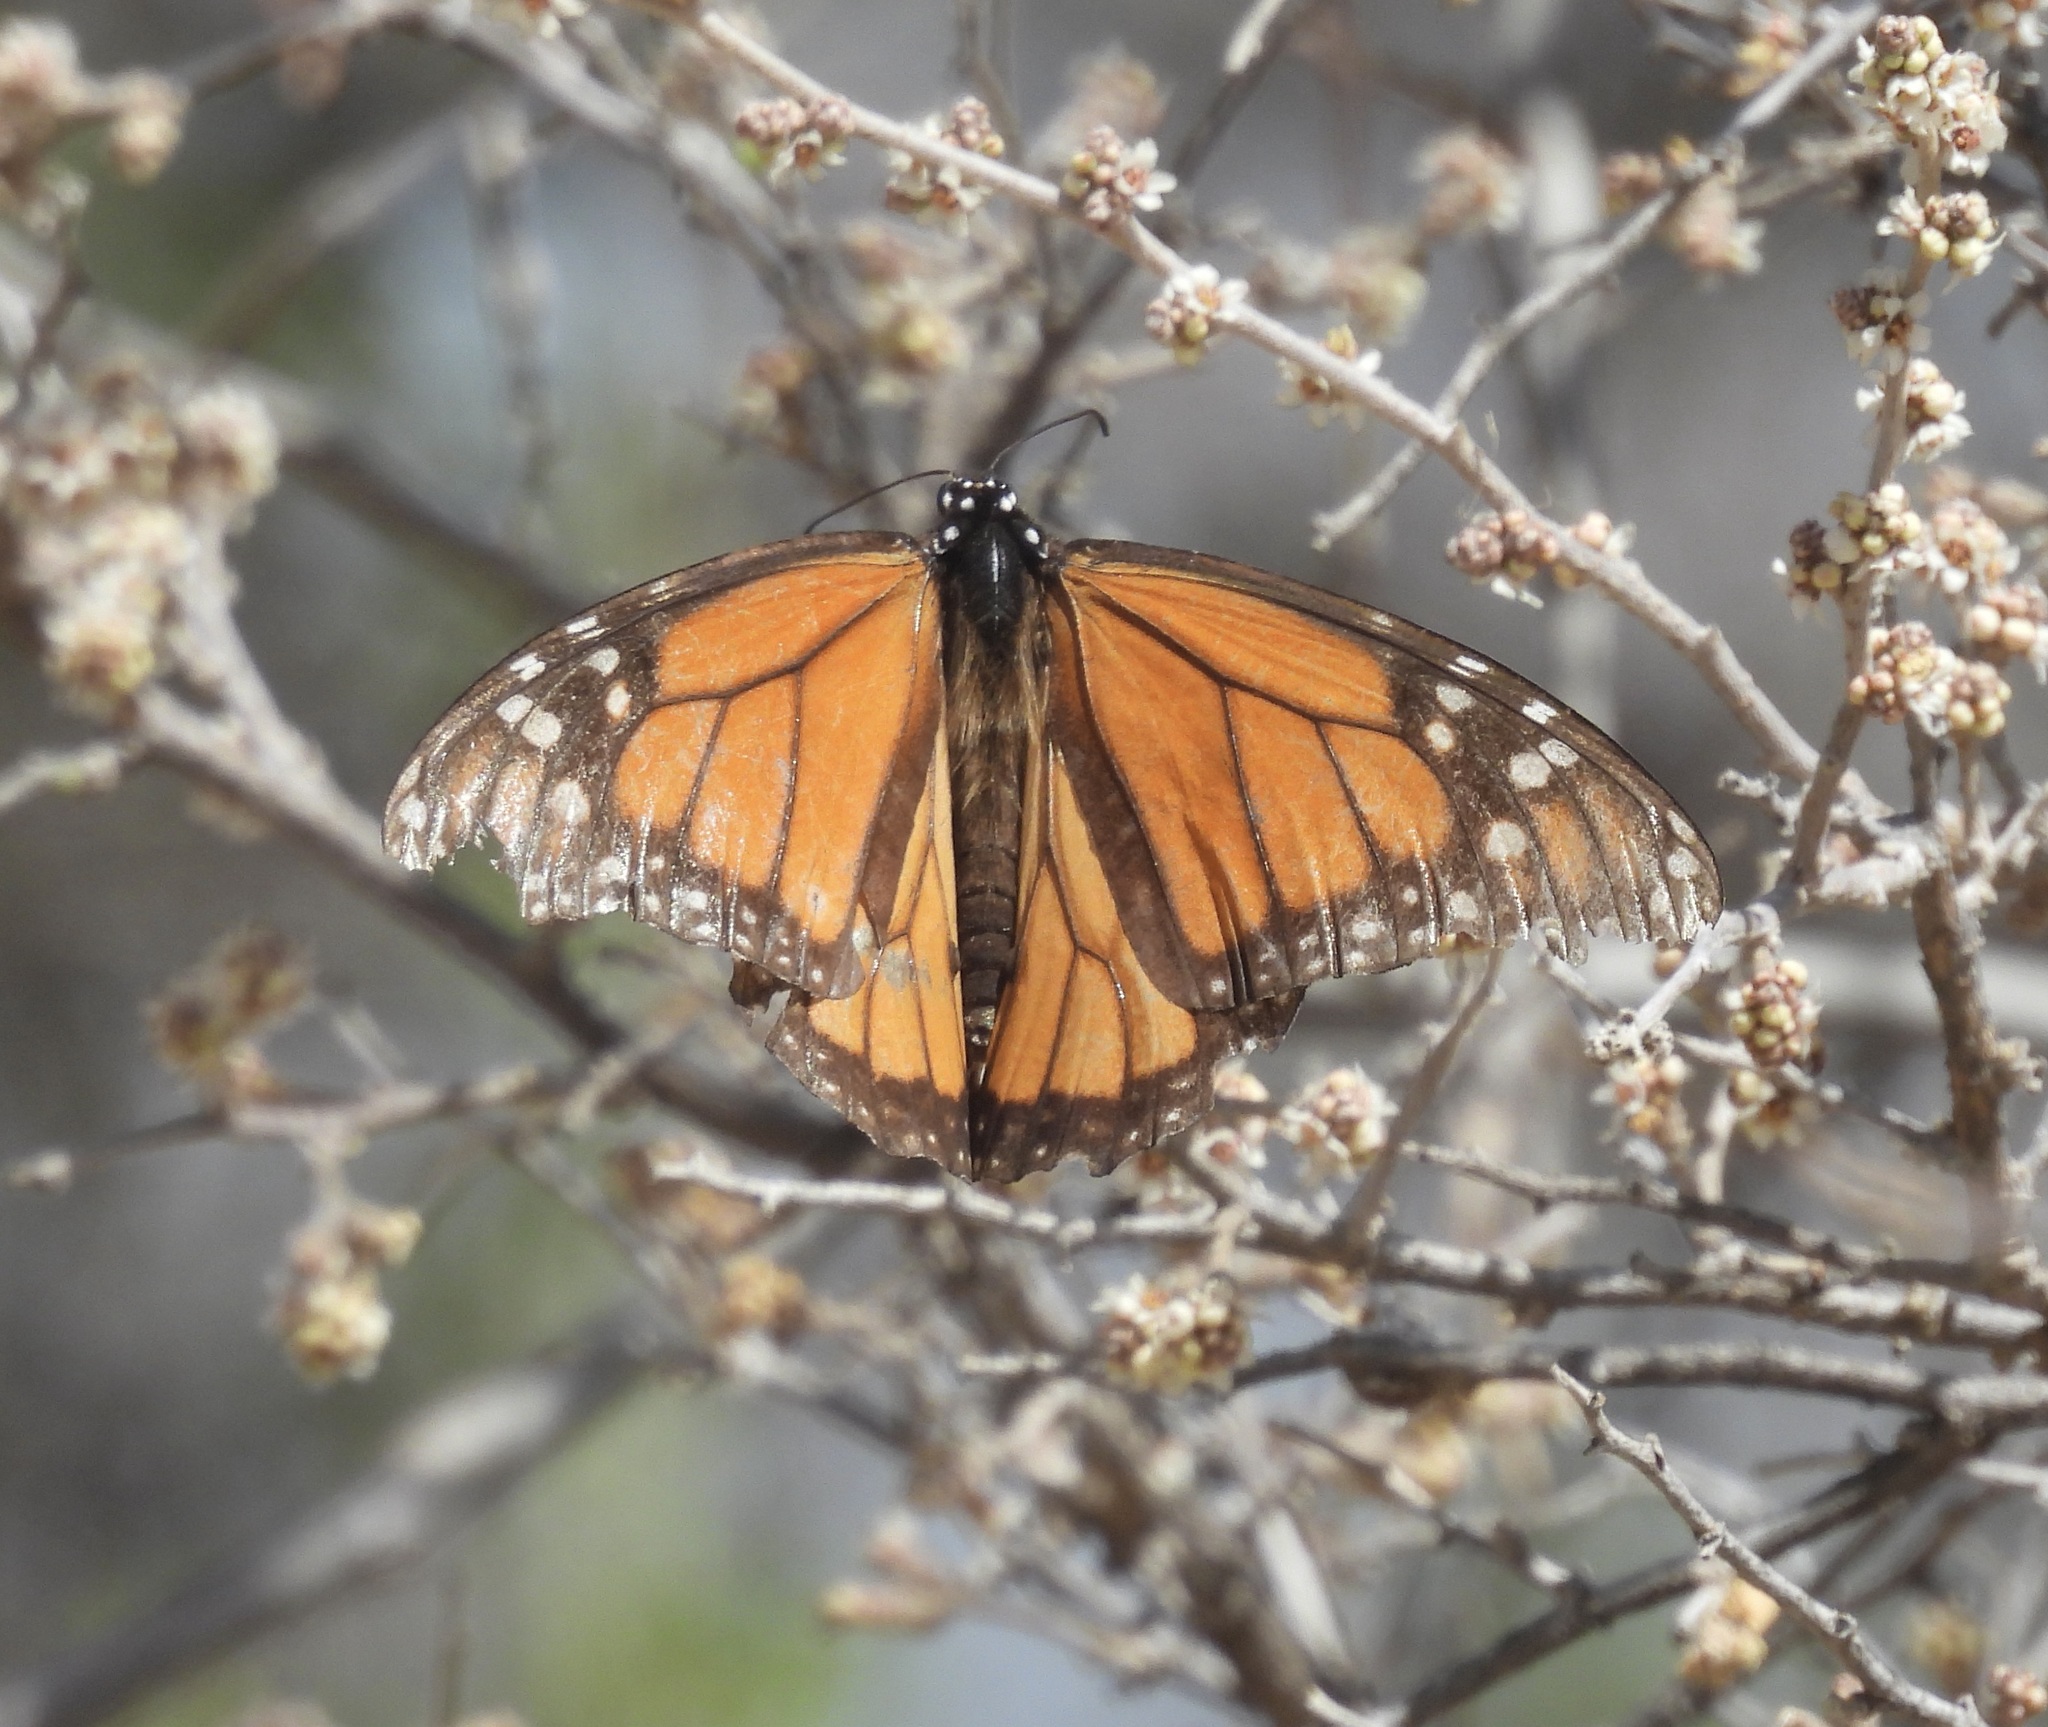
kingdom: Animalia
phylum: Arthropoda
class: Insecta
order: Lepidoptera
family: Nymphalidae
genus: Danaus
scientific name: Danaus plexippus
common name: Monarch
